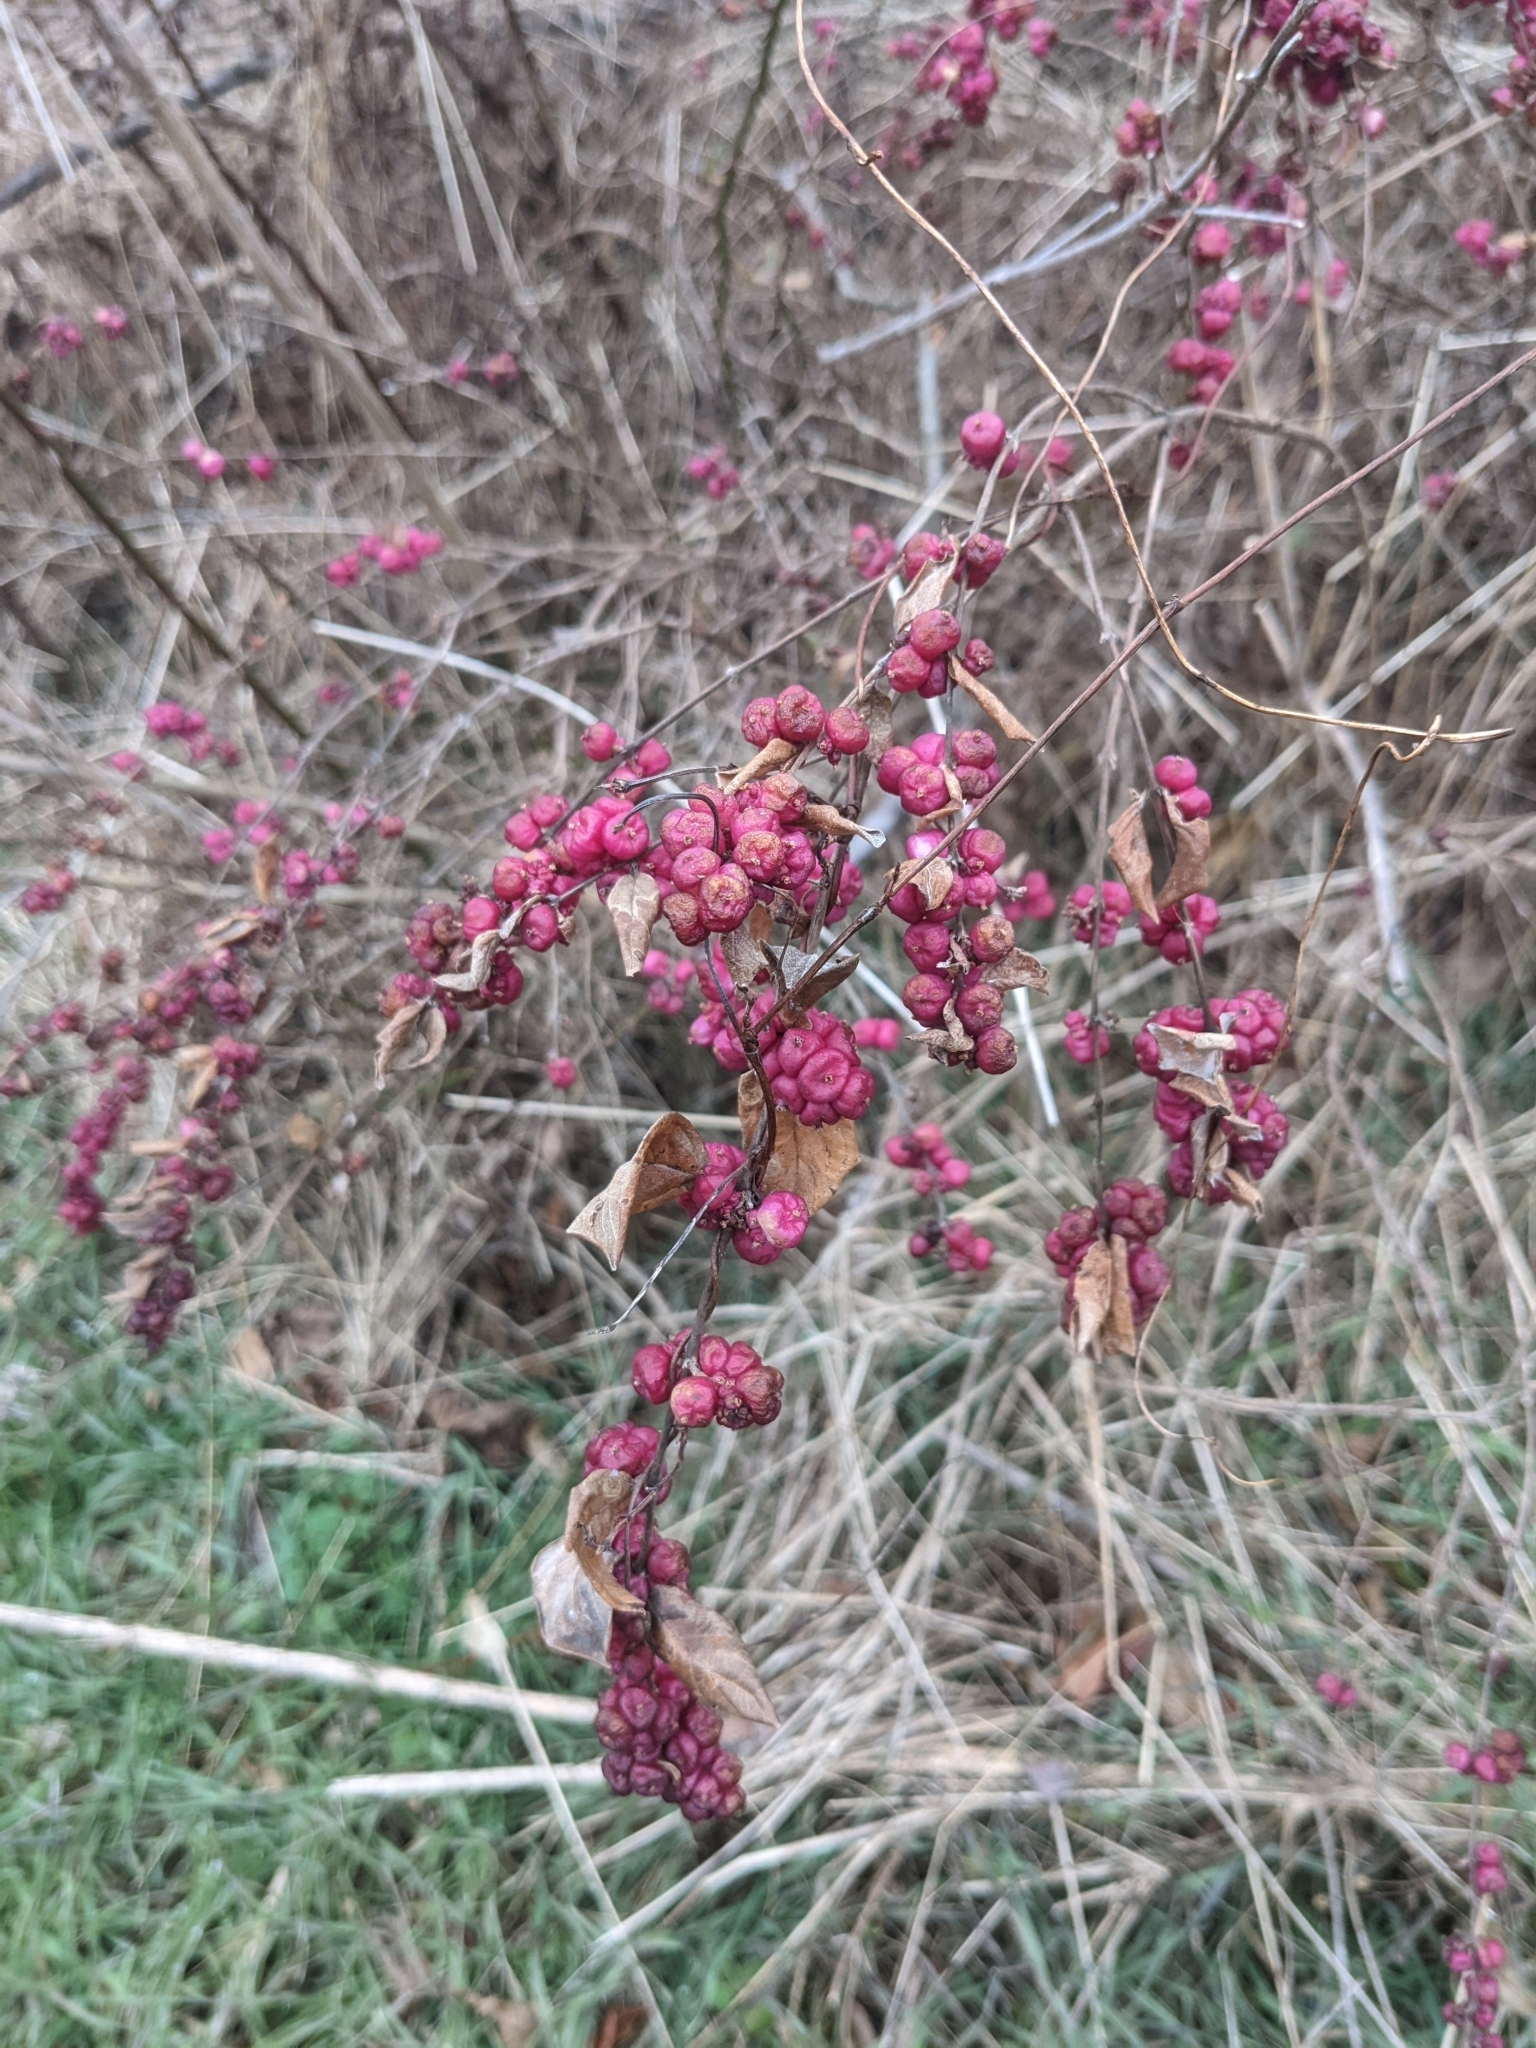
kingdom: Plantae
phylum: Tracheophyta
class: Magnoliopsida
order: Dipsacales
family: Caprifoliaceae
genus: Symphoricarpos
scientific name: Symphoricarpos orbiculatus
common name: Coralberry
